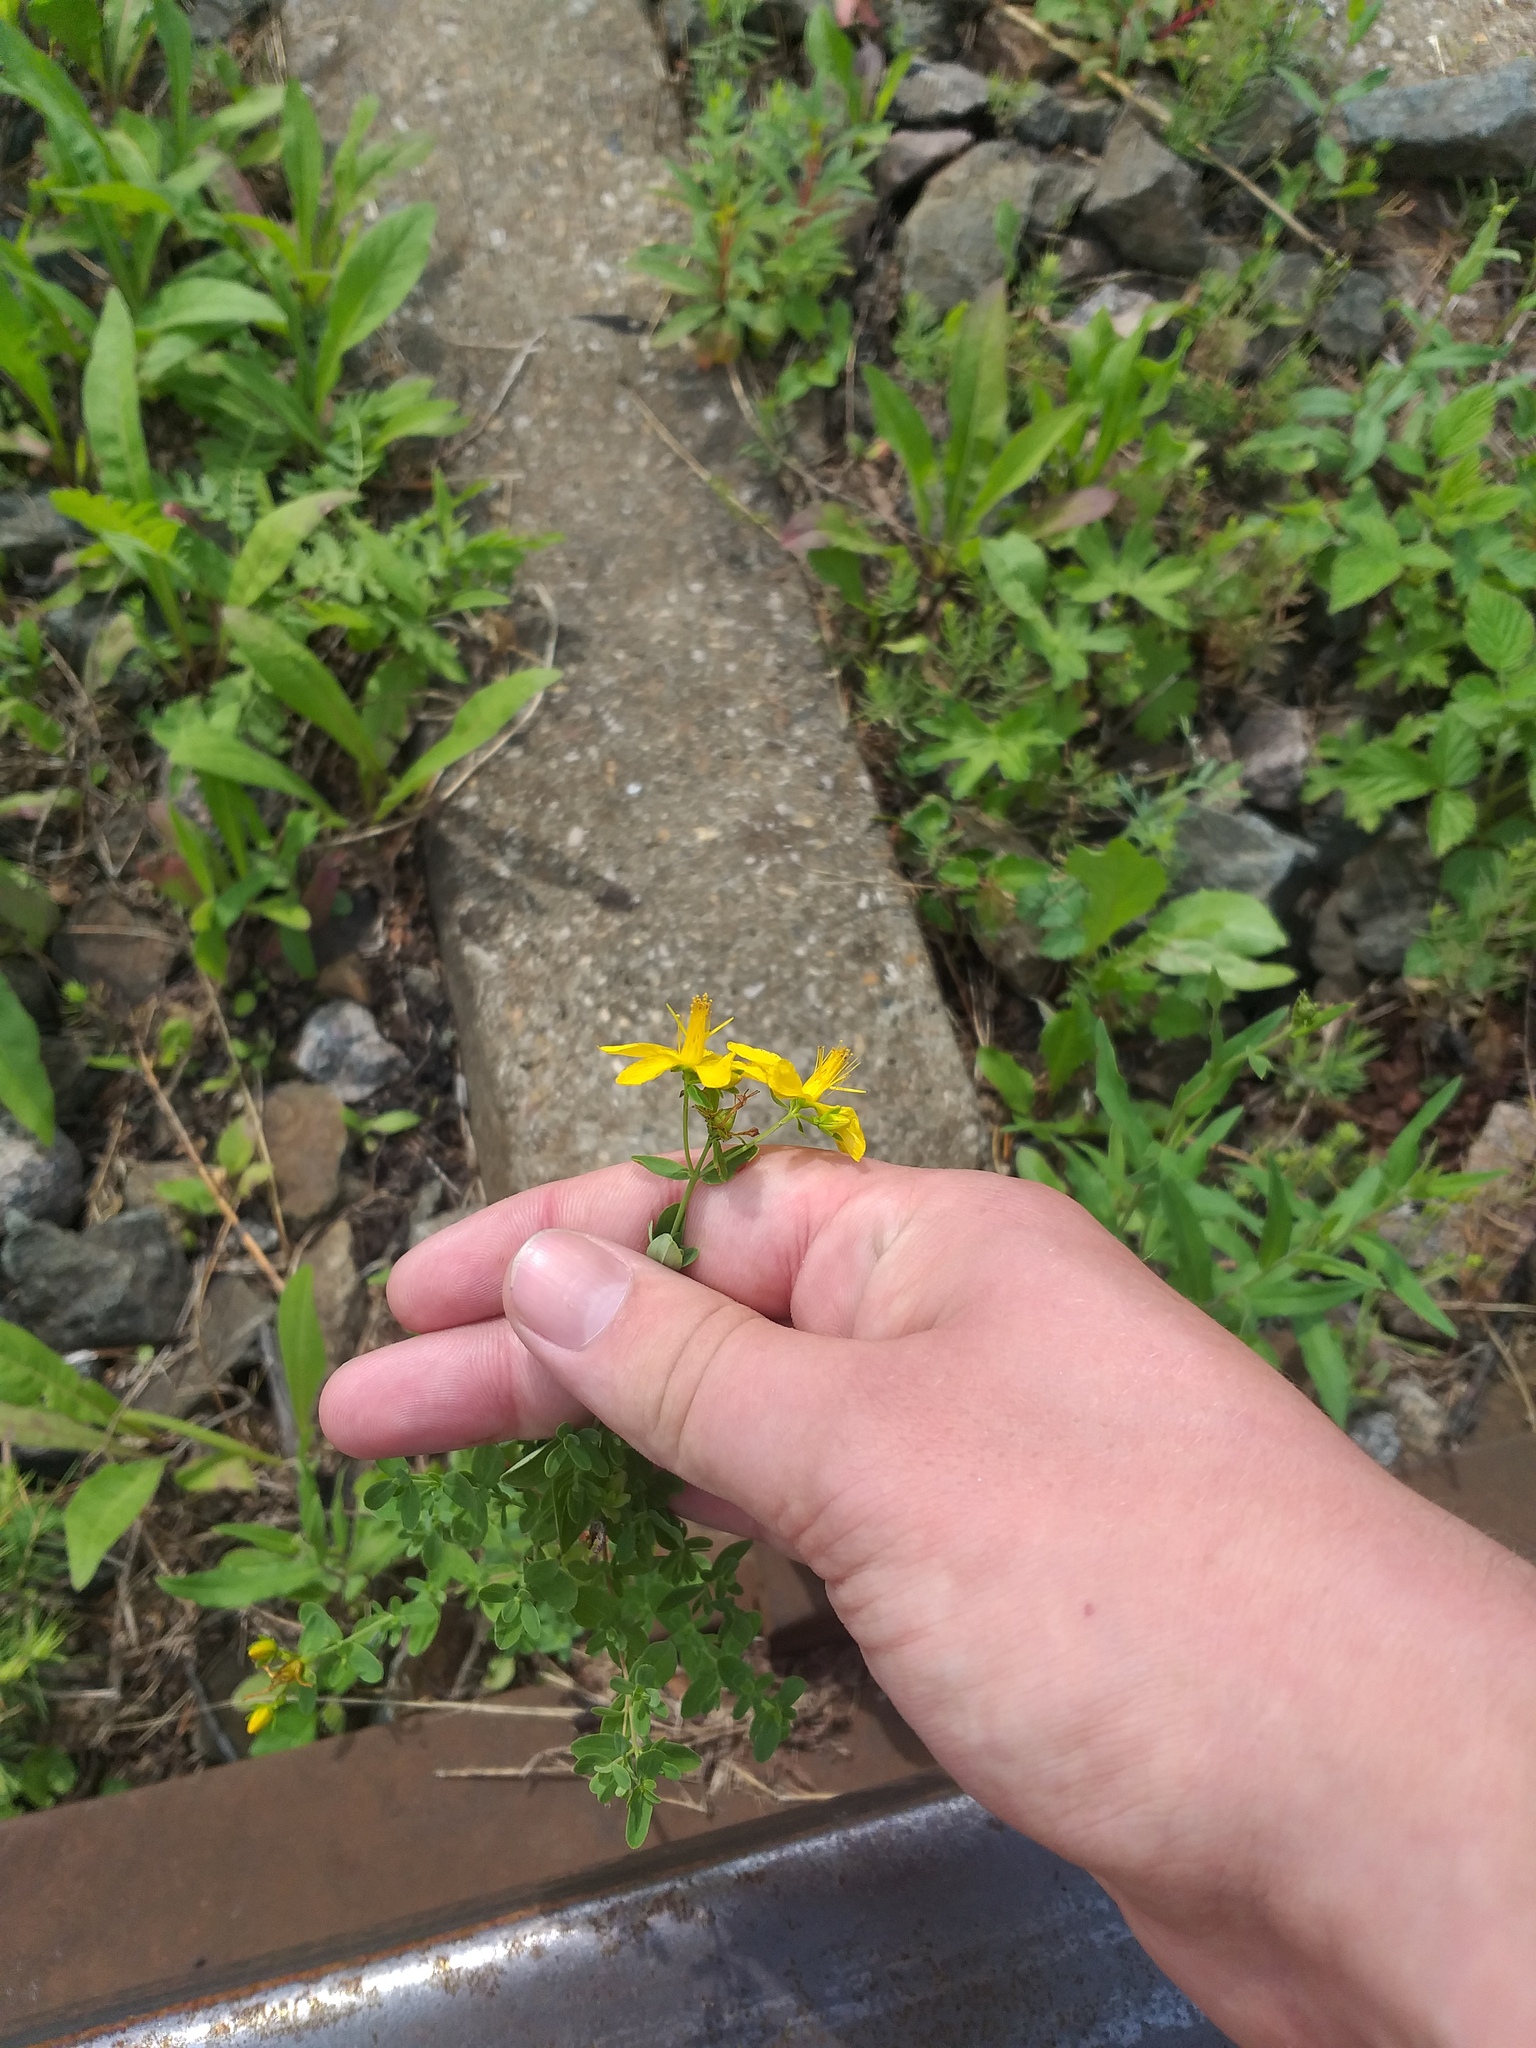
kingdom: Plantae
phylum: Tracheophyta
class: Magnoliopsida
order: Malpighiales
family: Hypericaceae
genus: Hypericum
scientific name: Hypericum perforatum
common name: Common st. johnswort
